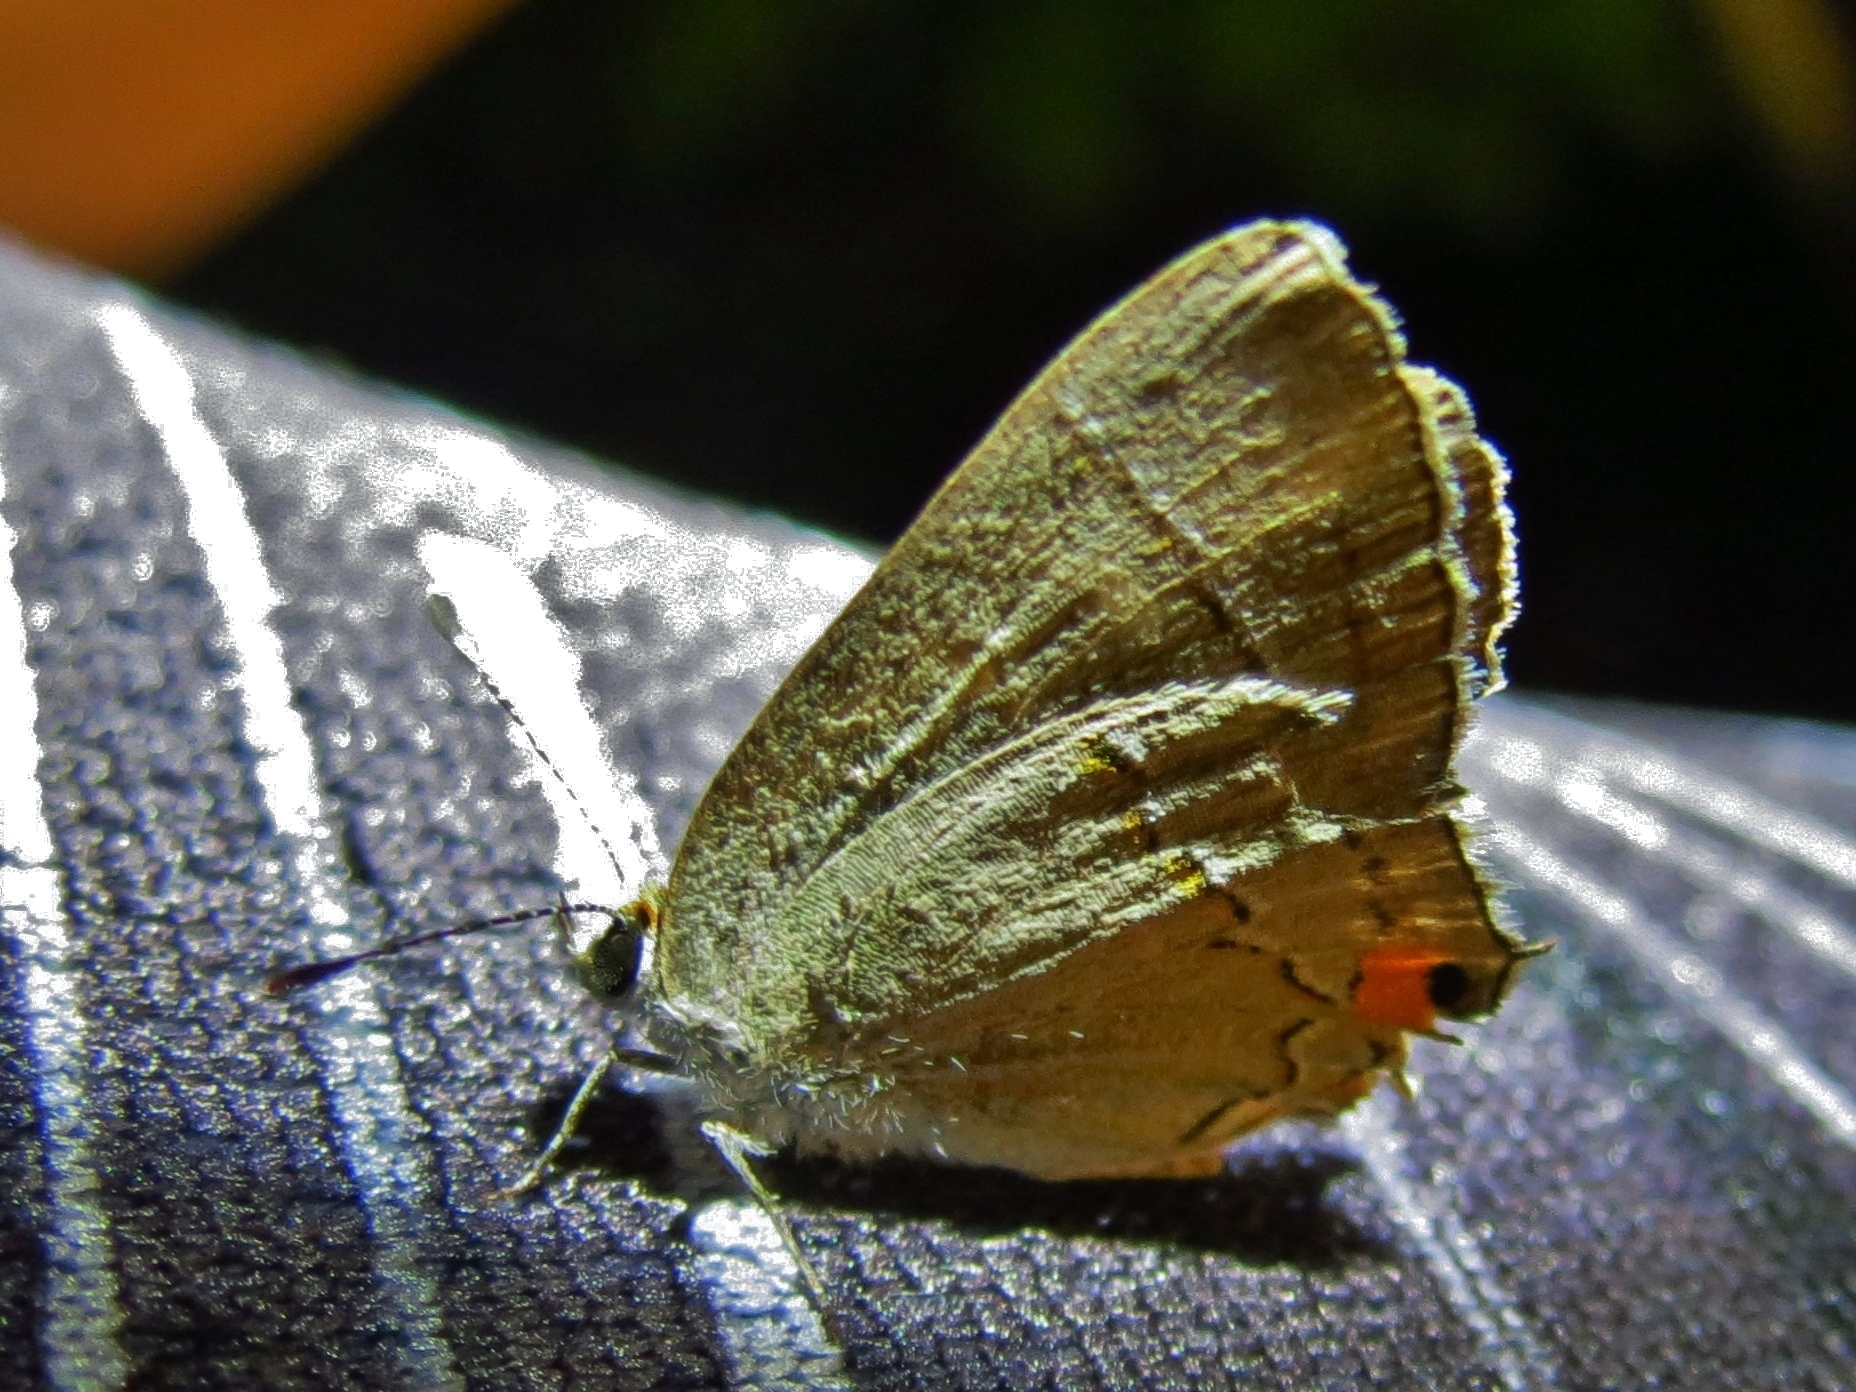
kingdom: Animalia
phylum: Arthropoda
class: Insecta
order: Lepidoptera
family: Lycaenidae
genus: Strymon
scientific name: Strymon melinus
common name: Gray hairstreak
